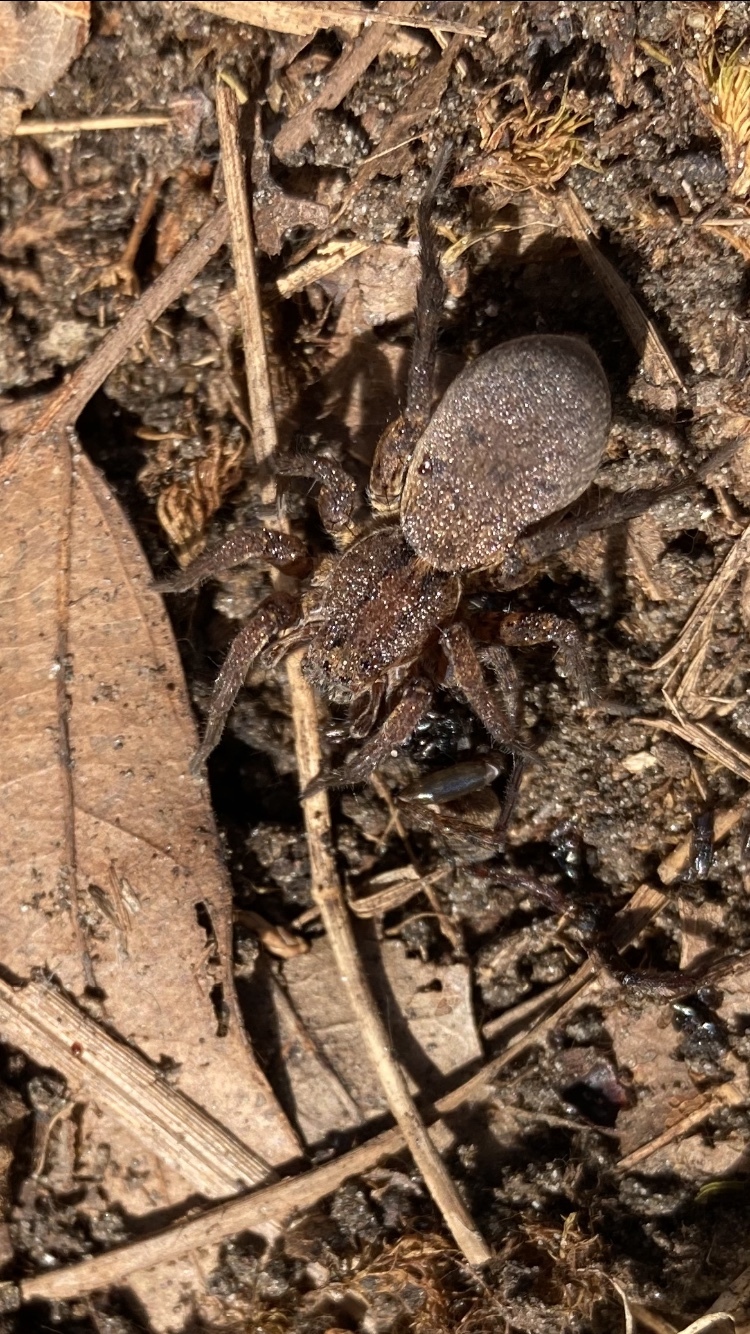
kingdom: Animalia
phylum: Arthropoda
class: Arachnida
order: Araneae
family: Lycosidae
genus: Varacosa
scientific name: Varacosa avara
